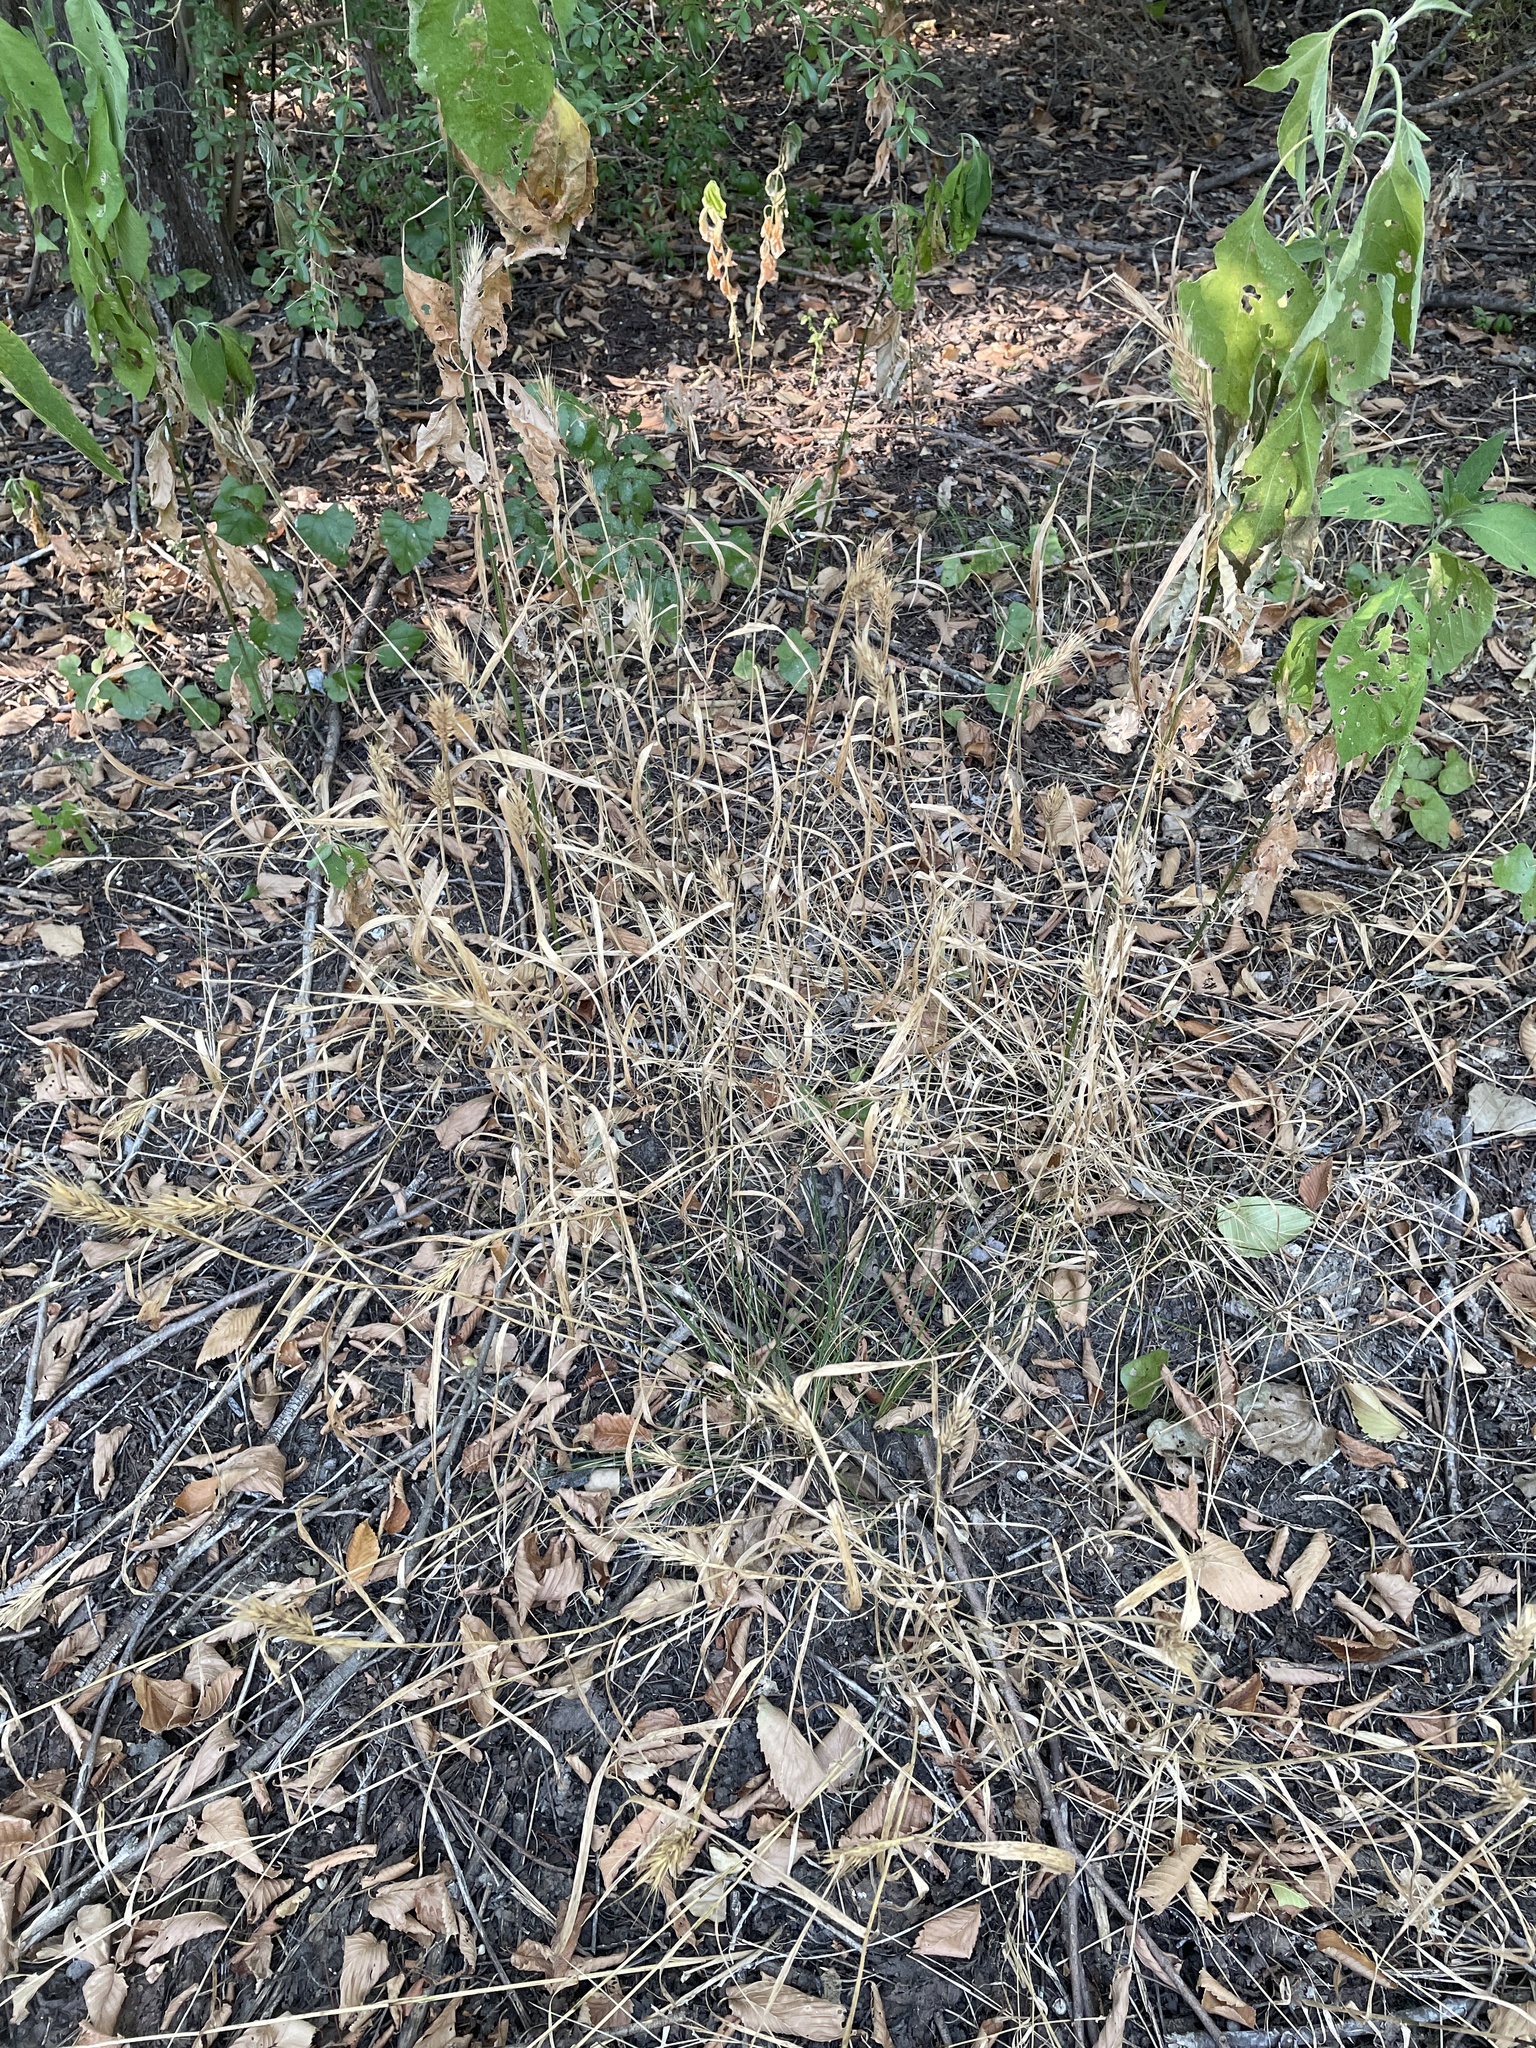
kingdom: Plantae
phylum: Tracheophyta
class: Liliopsida
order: Poales
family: Poaceae
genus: Elymus
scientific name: Elymus virginicus
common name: Common eastern wildrye
